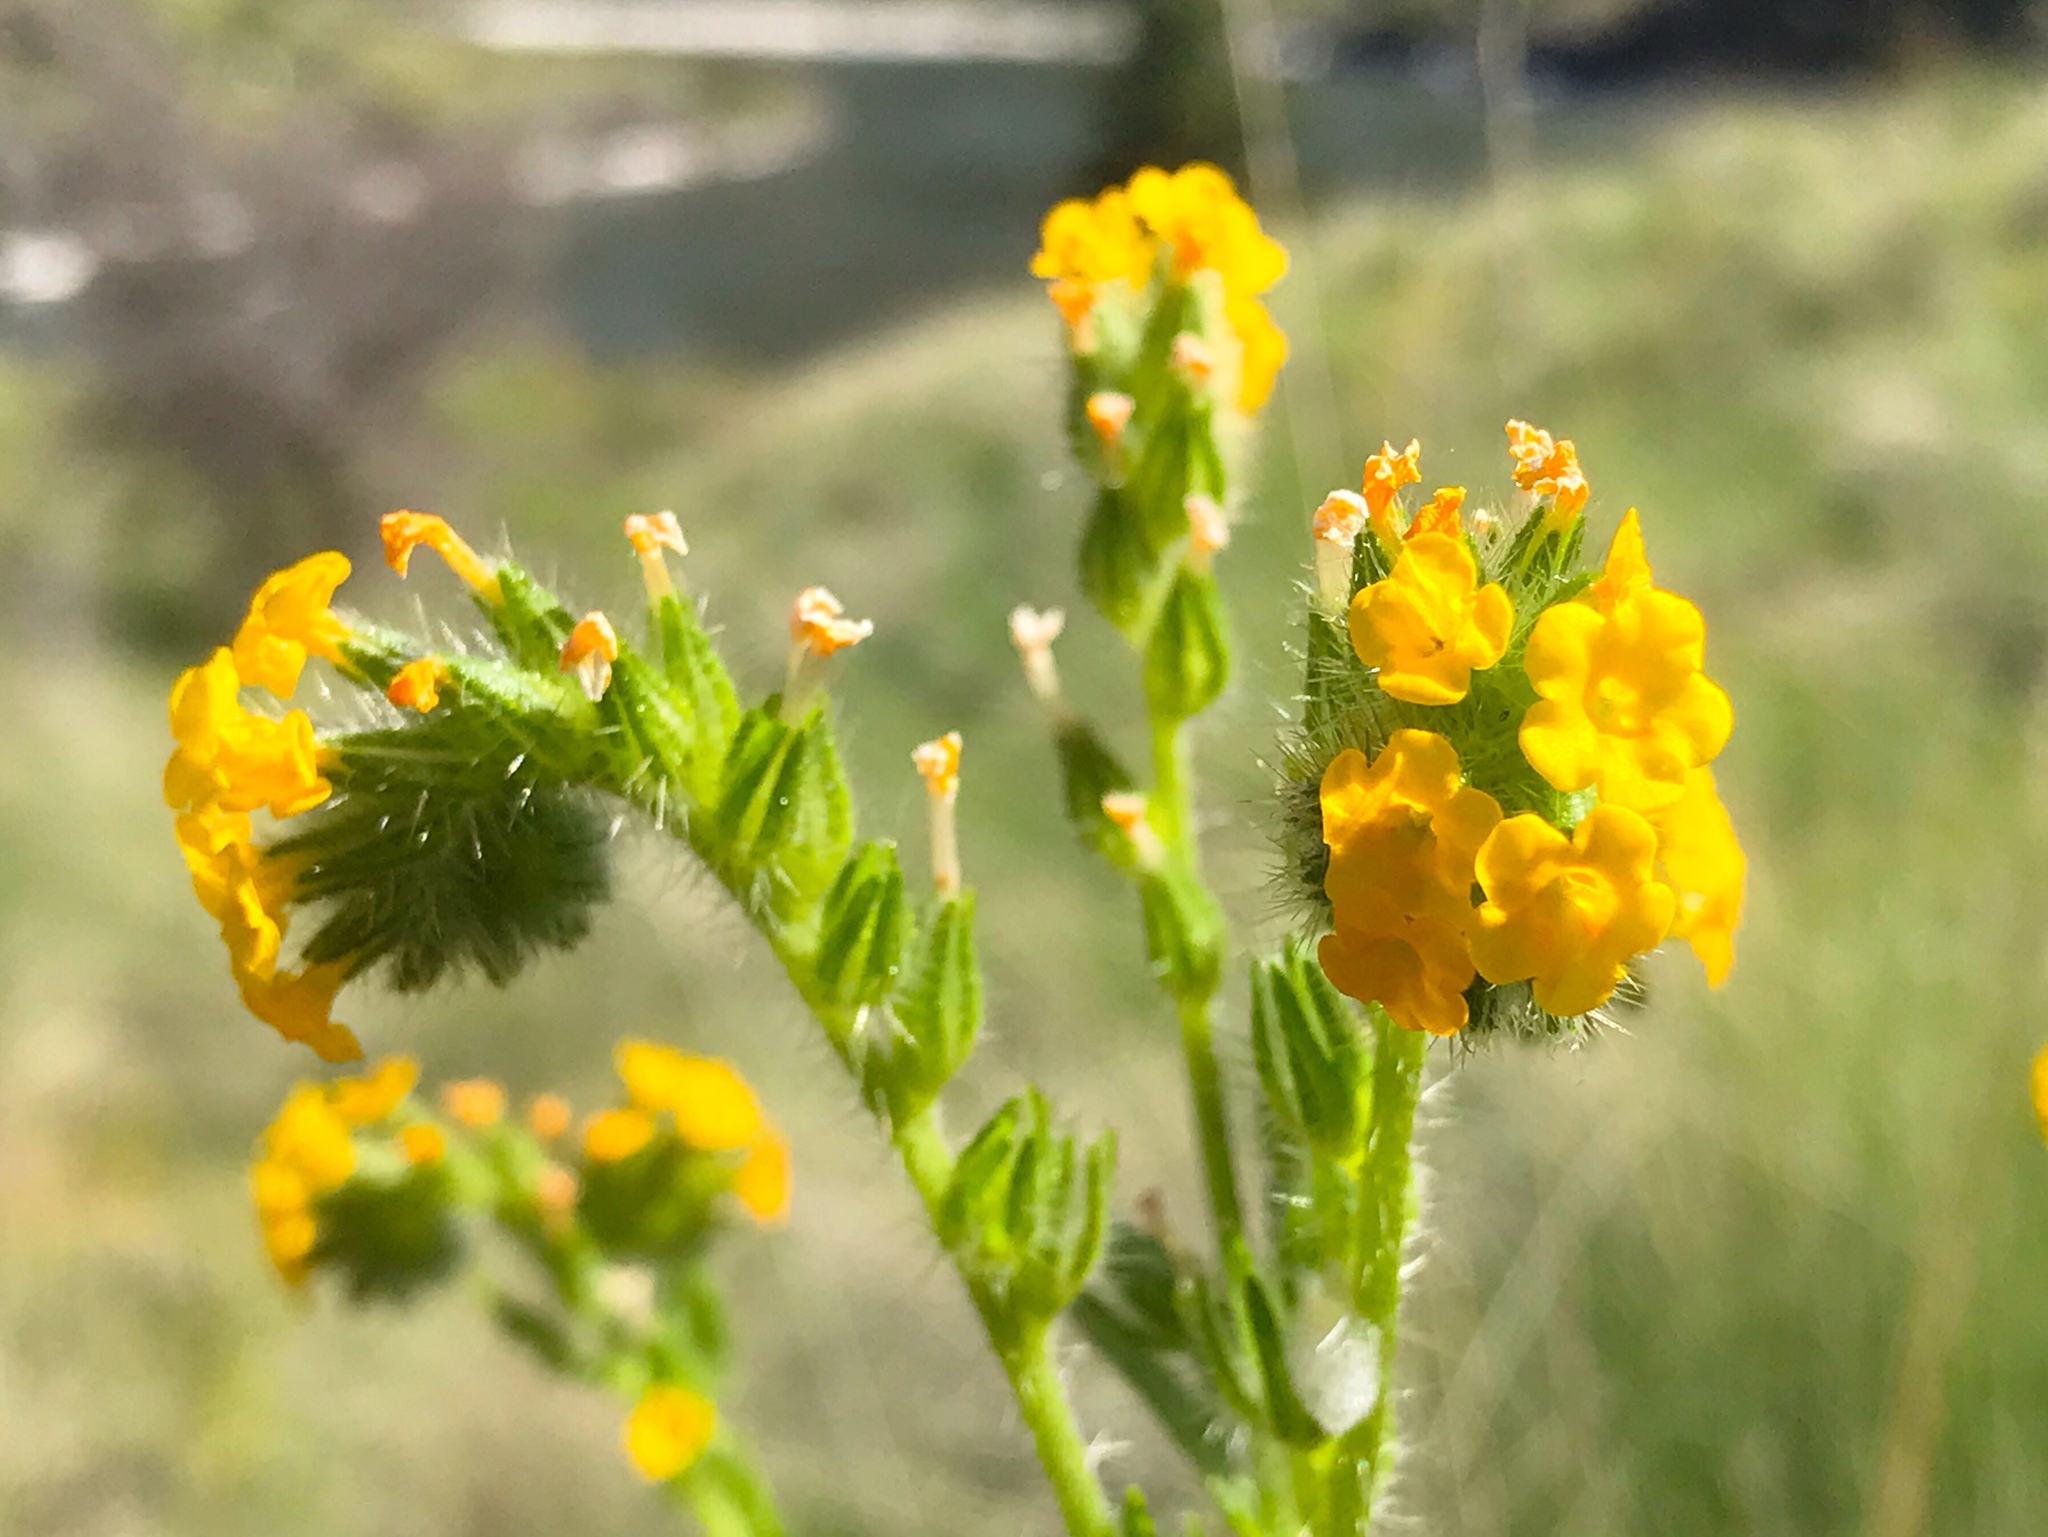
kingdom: Plantae
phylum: Tracheophyta
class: Magnoliopsida
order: Boraginales
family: Boraginaceae
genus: Amsinckia
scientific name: Amsinckia menziesii
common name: Menzies' fiddleneck
